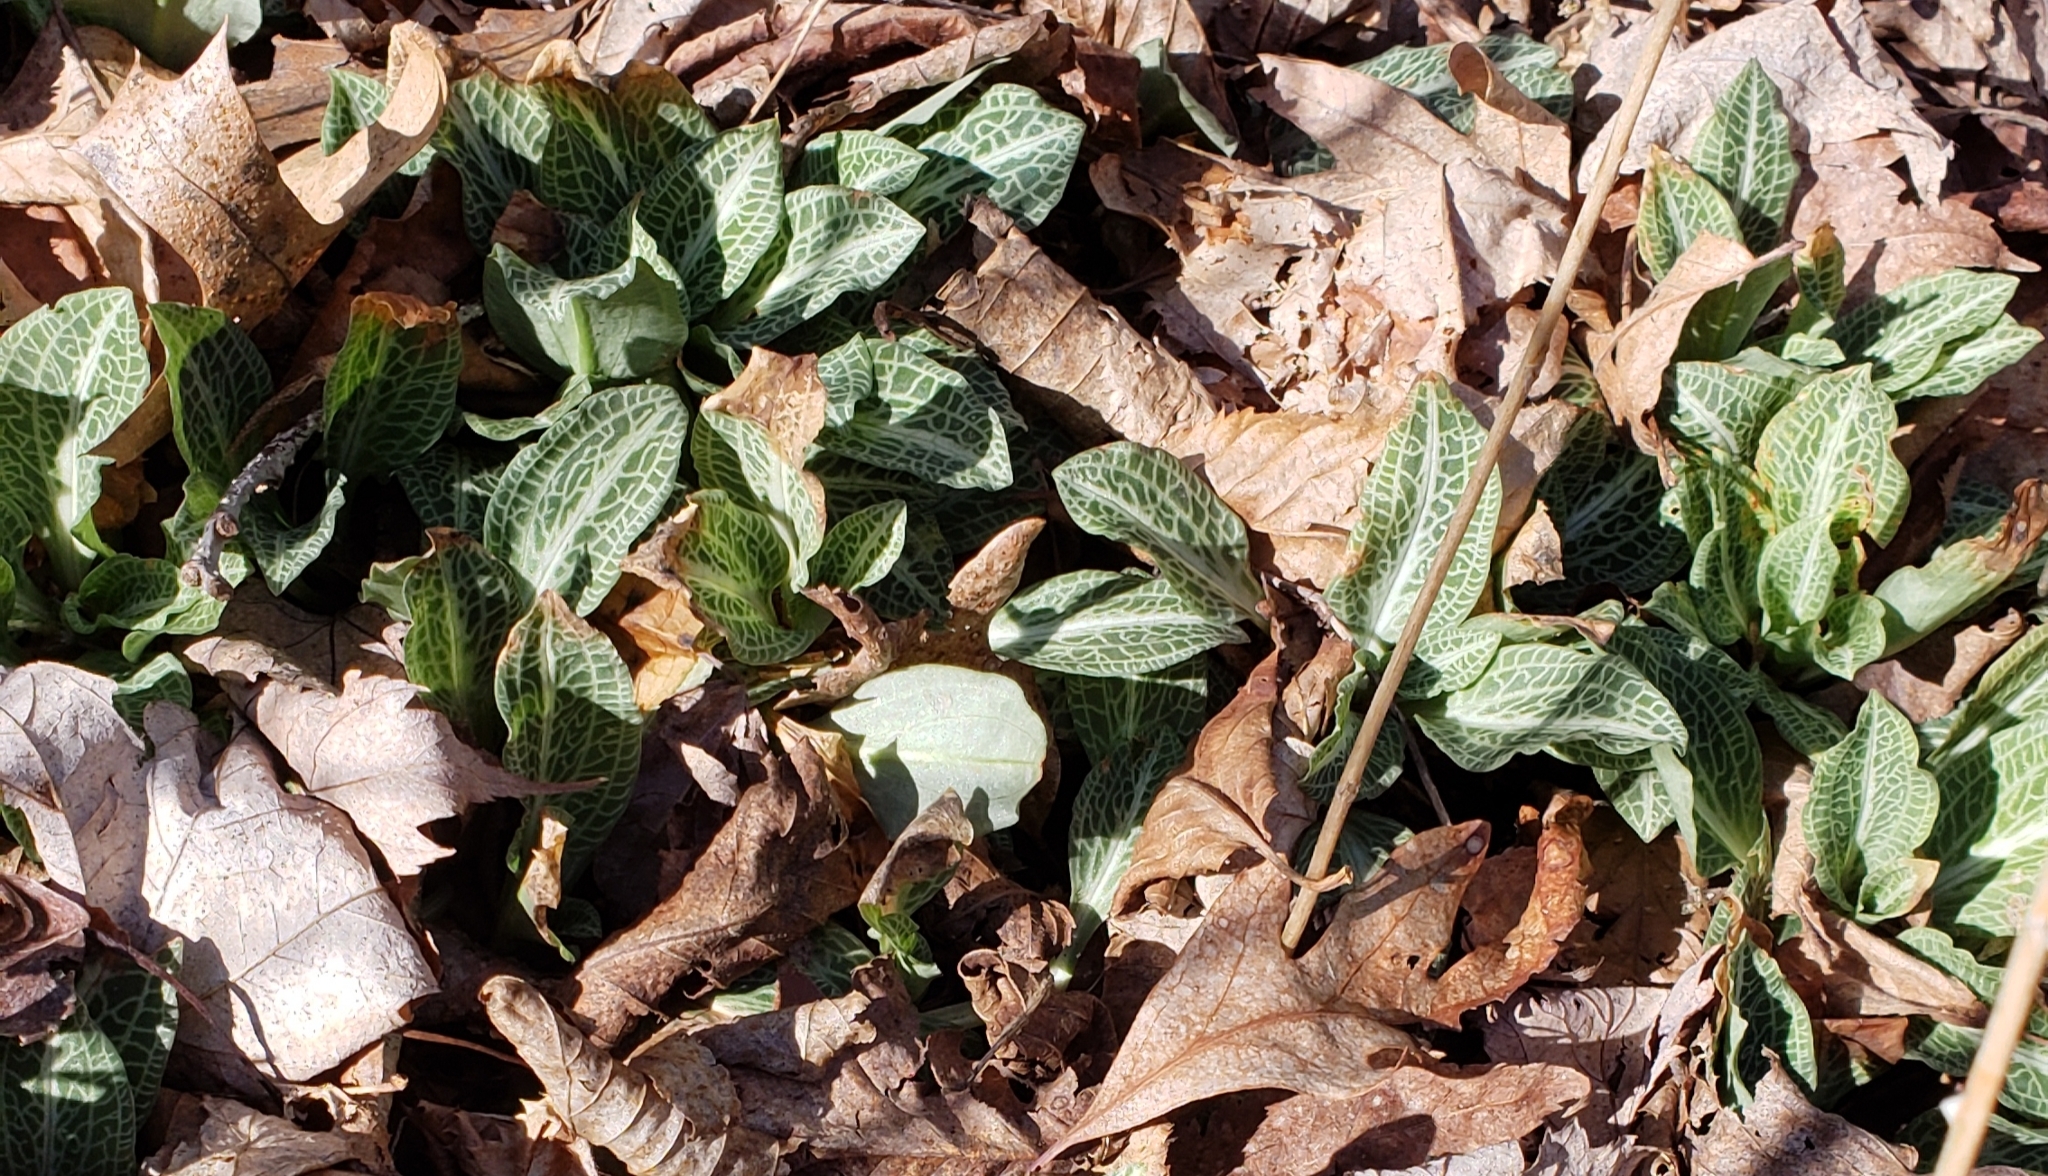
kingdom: Plantae
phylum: Tracheophyta
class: Liliopsida
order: Asparagales
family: Orchidaceae
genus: Goodyera
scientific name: Goodyera pubescens
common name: Downy rattlesnake-plantain
